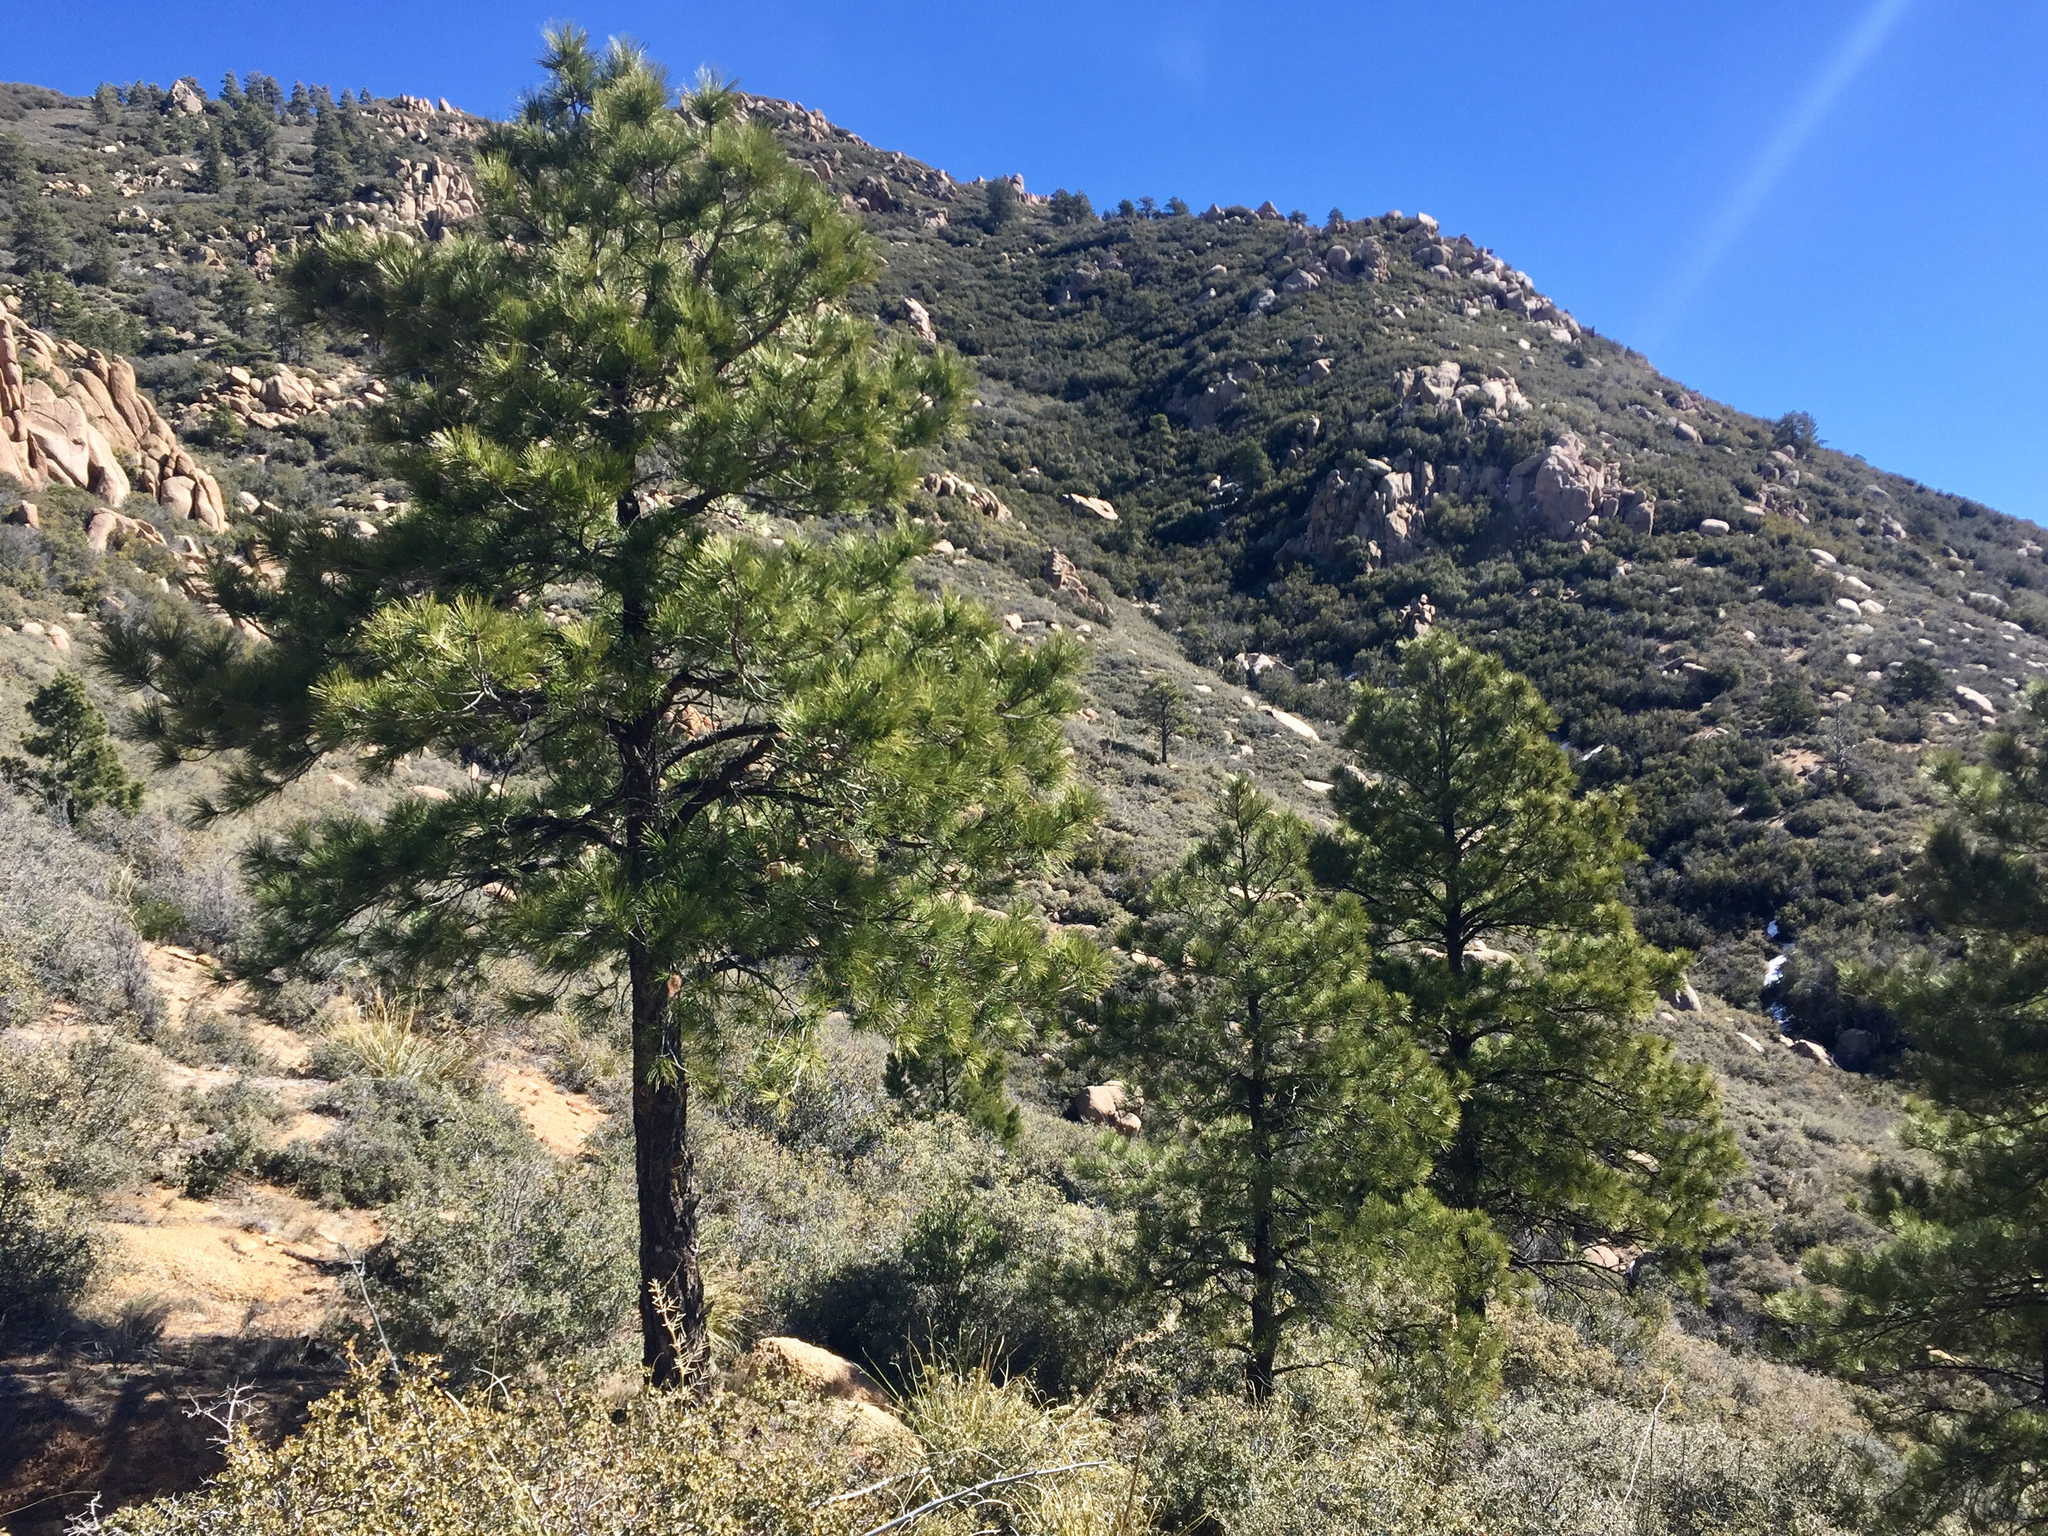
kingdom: Plantae
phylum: Tracheophyta
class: Pinopsida
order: Pinales
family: Pinaceae
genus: Pinus
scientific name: Pinus ponderosa
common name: Western yellow-pine
